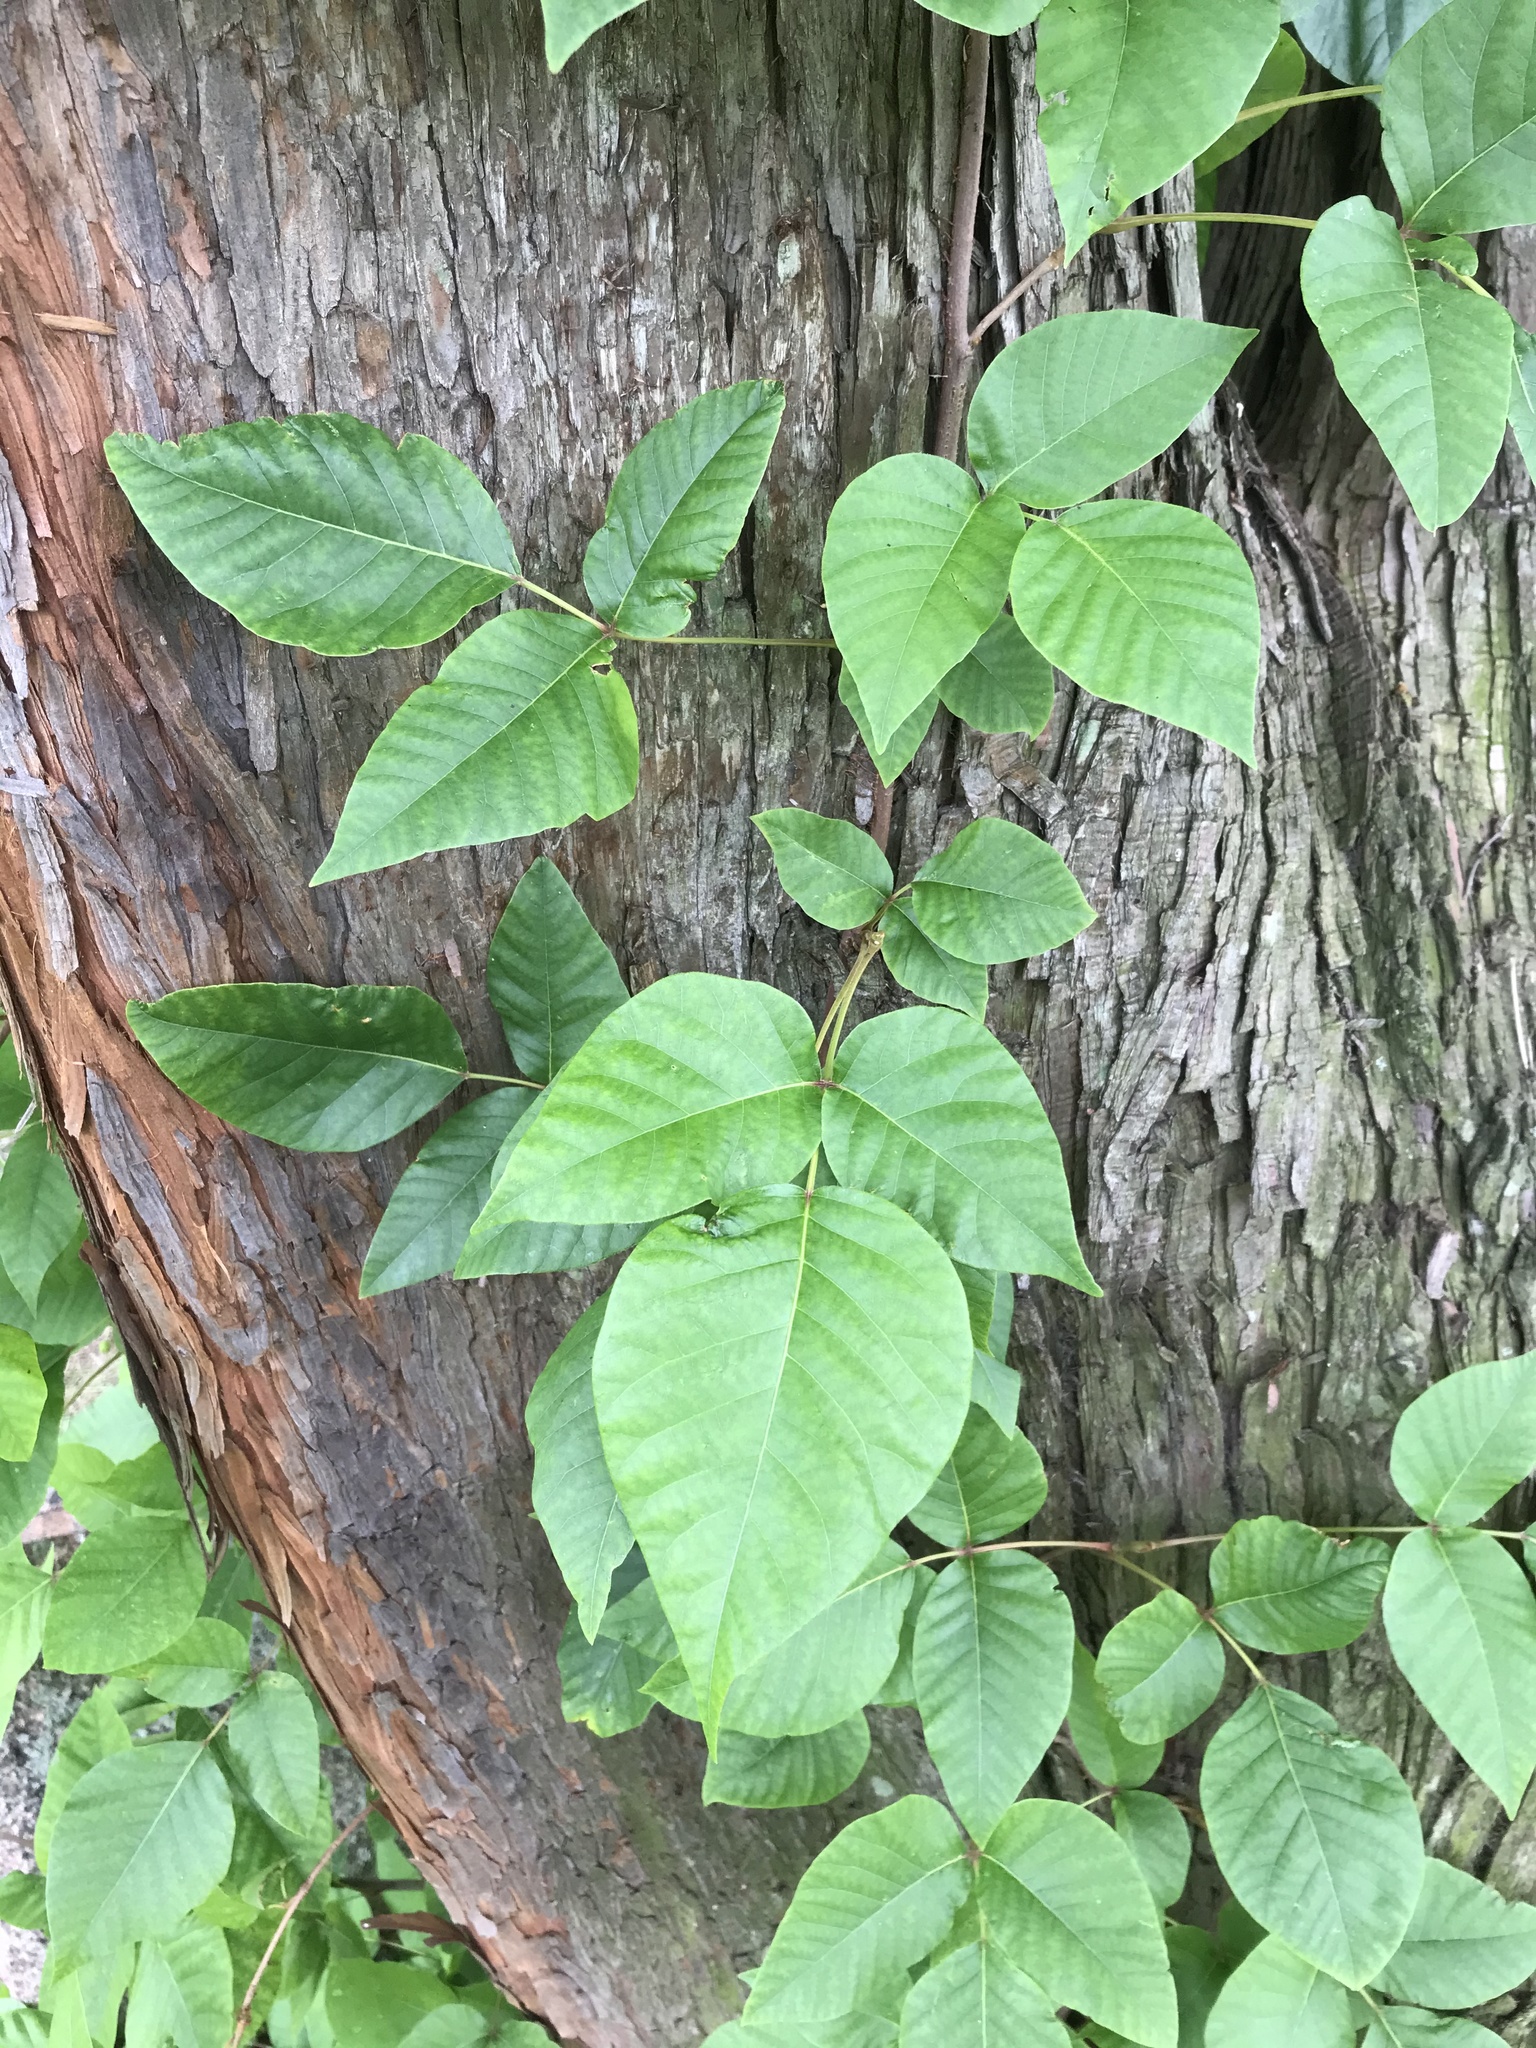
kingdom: Plantae
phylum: Tracheophyta
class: Magnoliopsida
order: Sapindales
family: Anacardiaceae
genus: Toxicodendron
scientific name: Toxicodendron radicans
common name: Poison ivy
